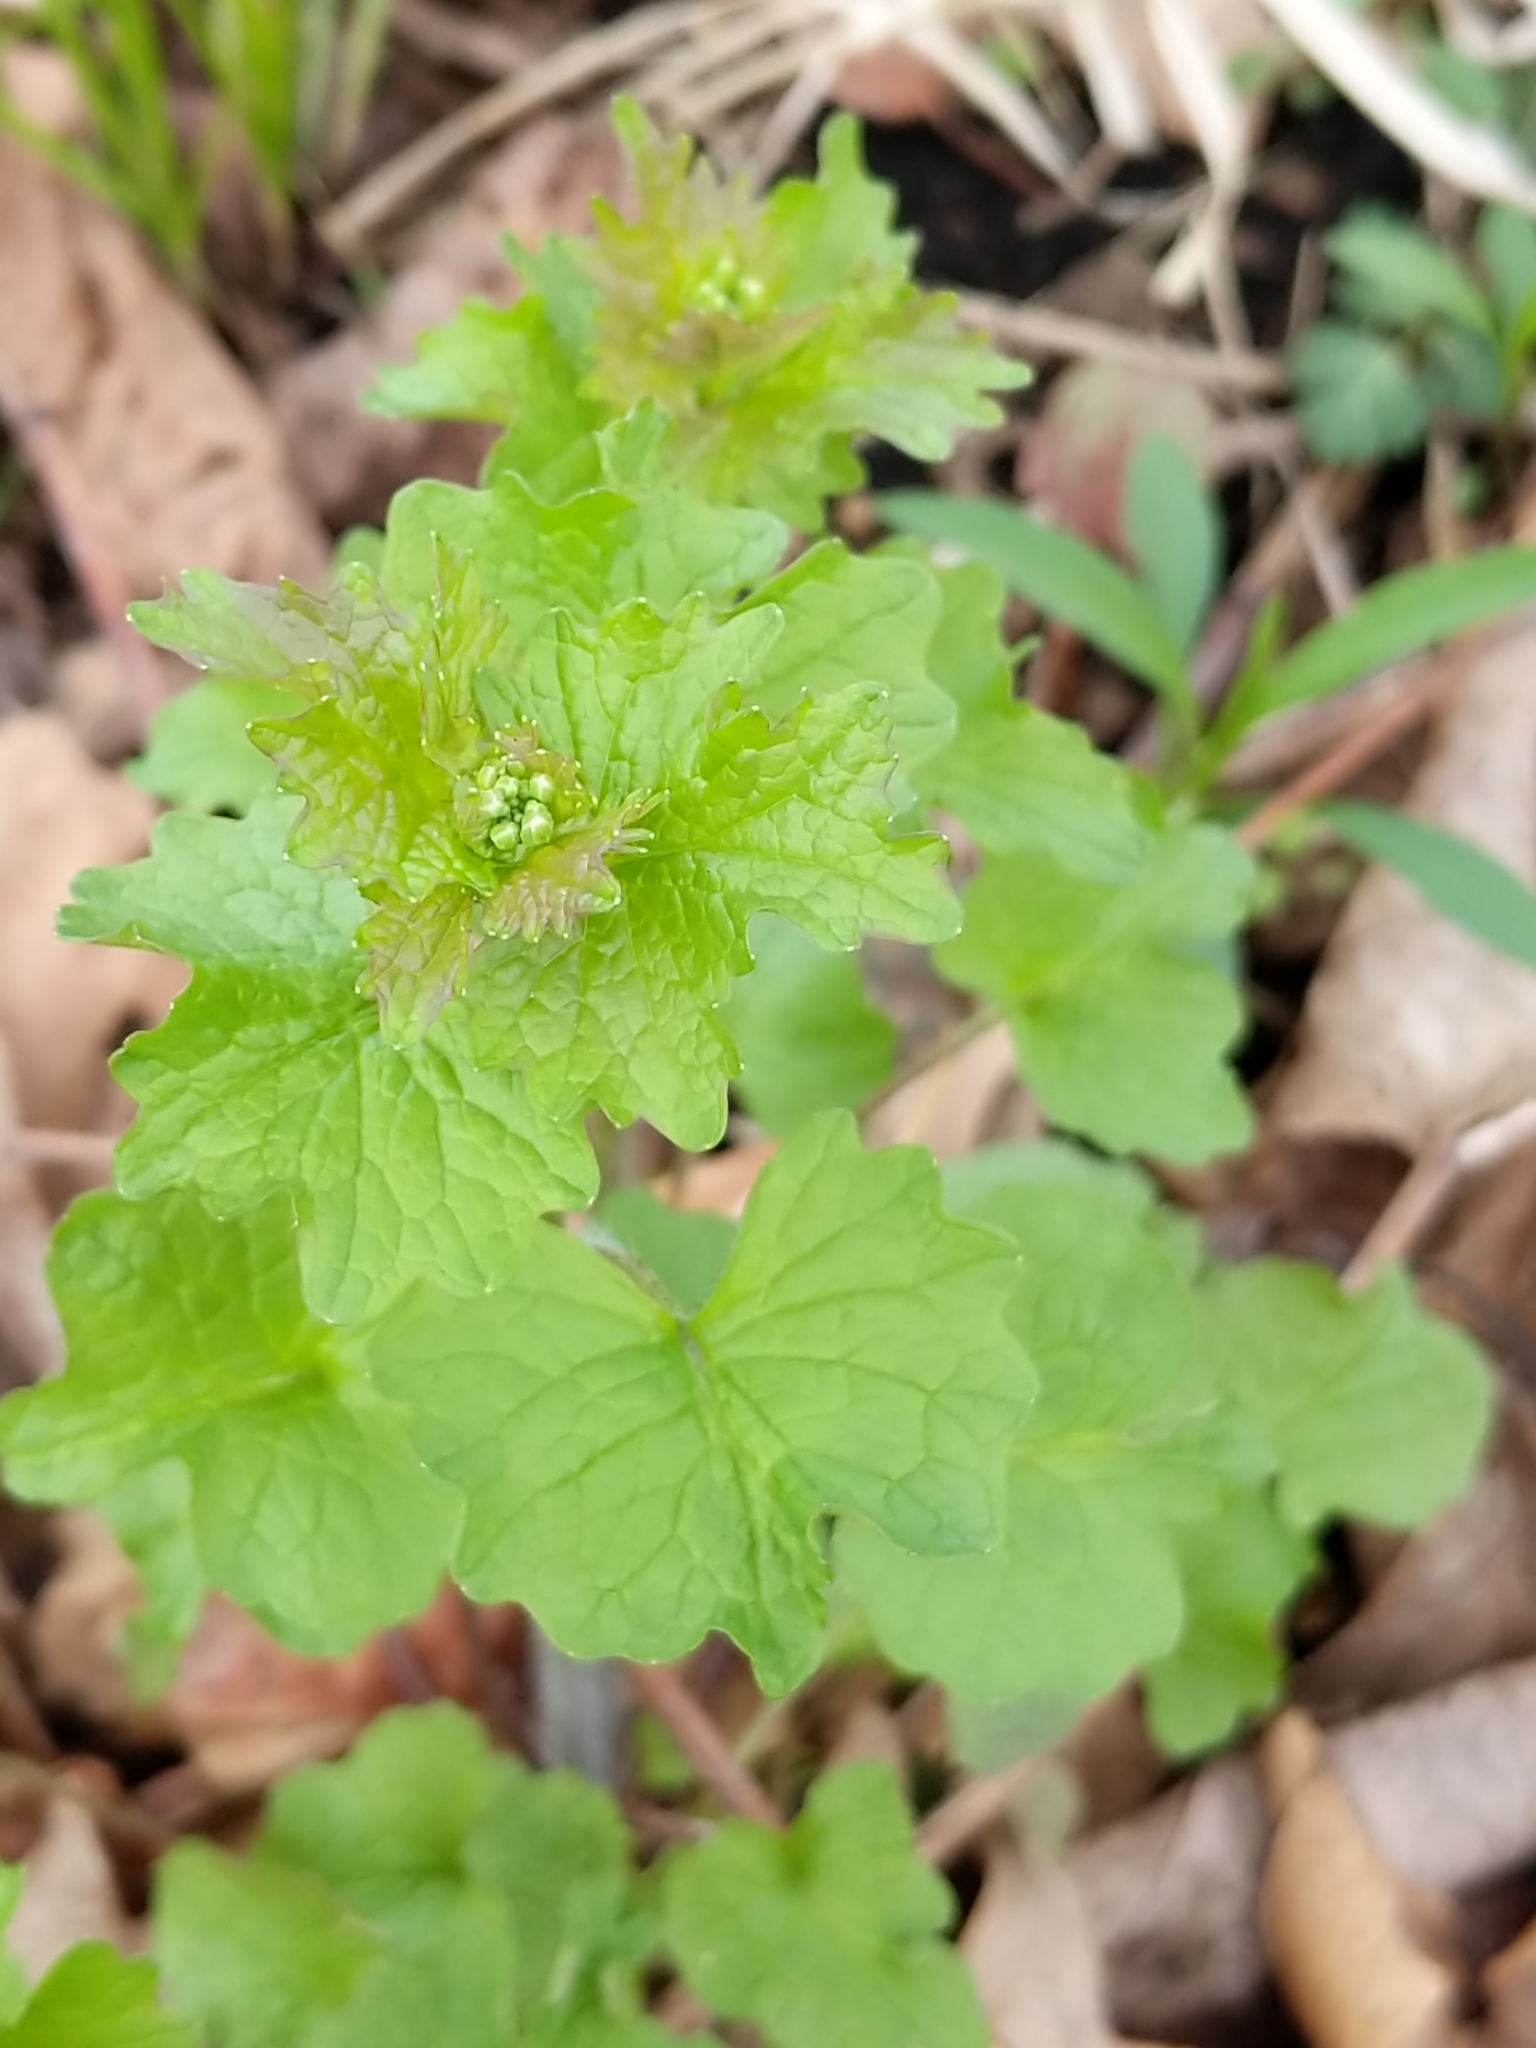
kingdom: Plantae
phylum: Tracheophyta
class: Magnoliopsida
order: Brassicales
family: Brassicaceae
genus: Alliaria
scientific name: Alliaria petiolata
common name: Garlic mustard
